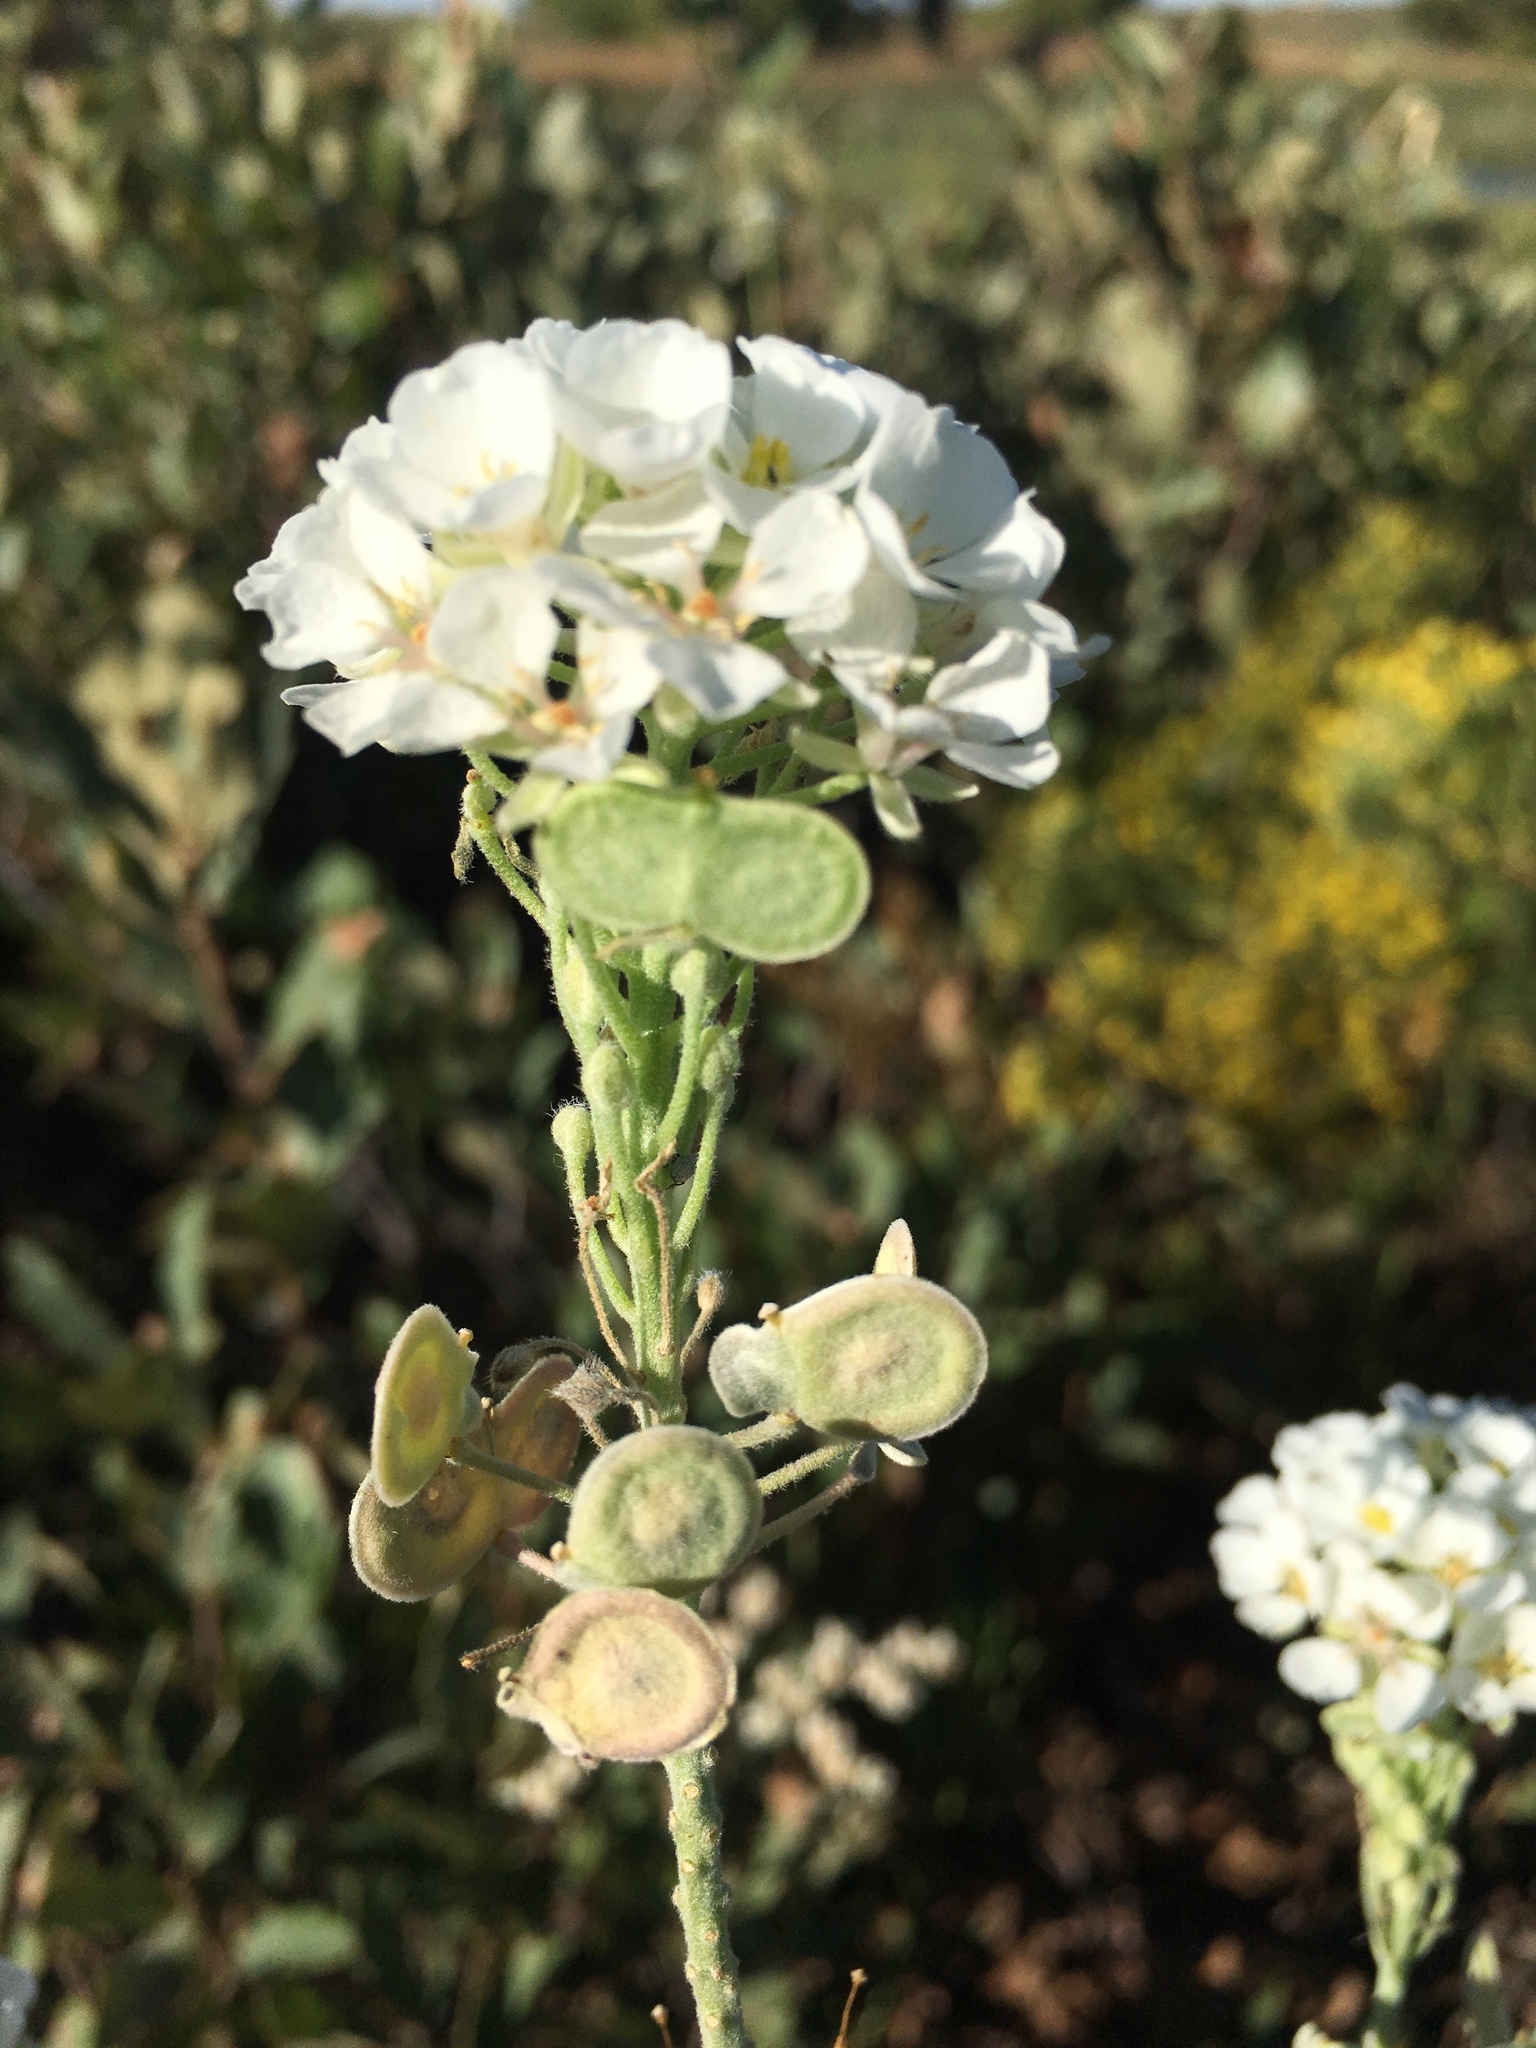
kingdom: Plantae
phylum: Tracheophyta
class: Magnoliopsida
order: Brassicales
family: Brassicaceae
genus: Dimorphocarpa
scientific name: Dimorphocarpa wislizenii
